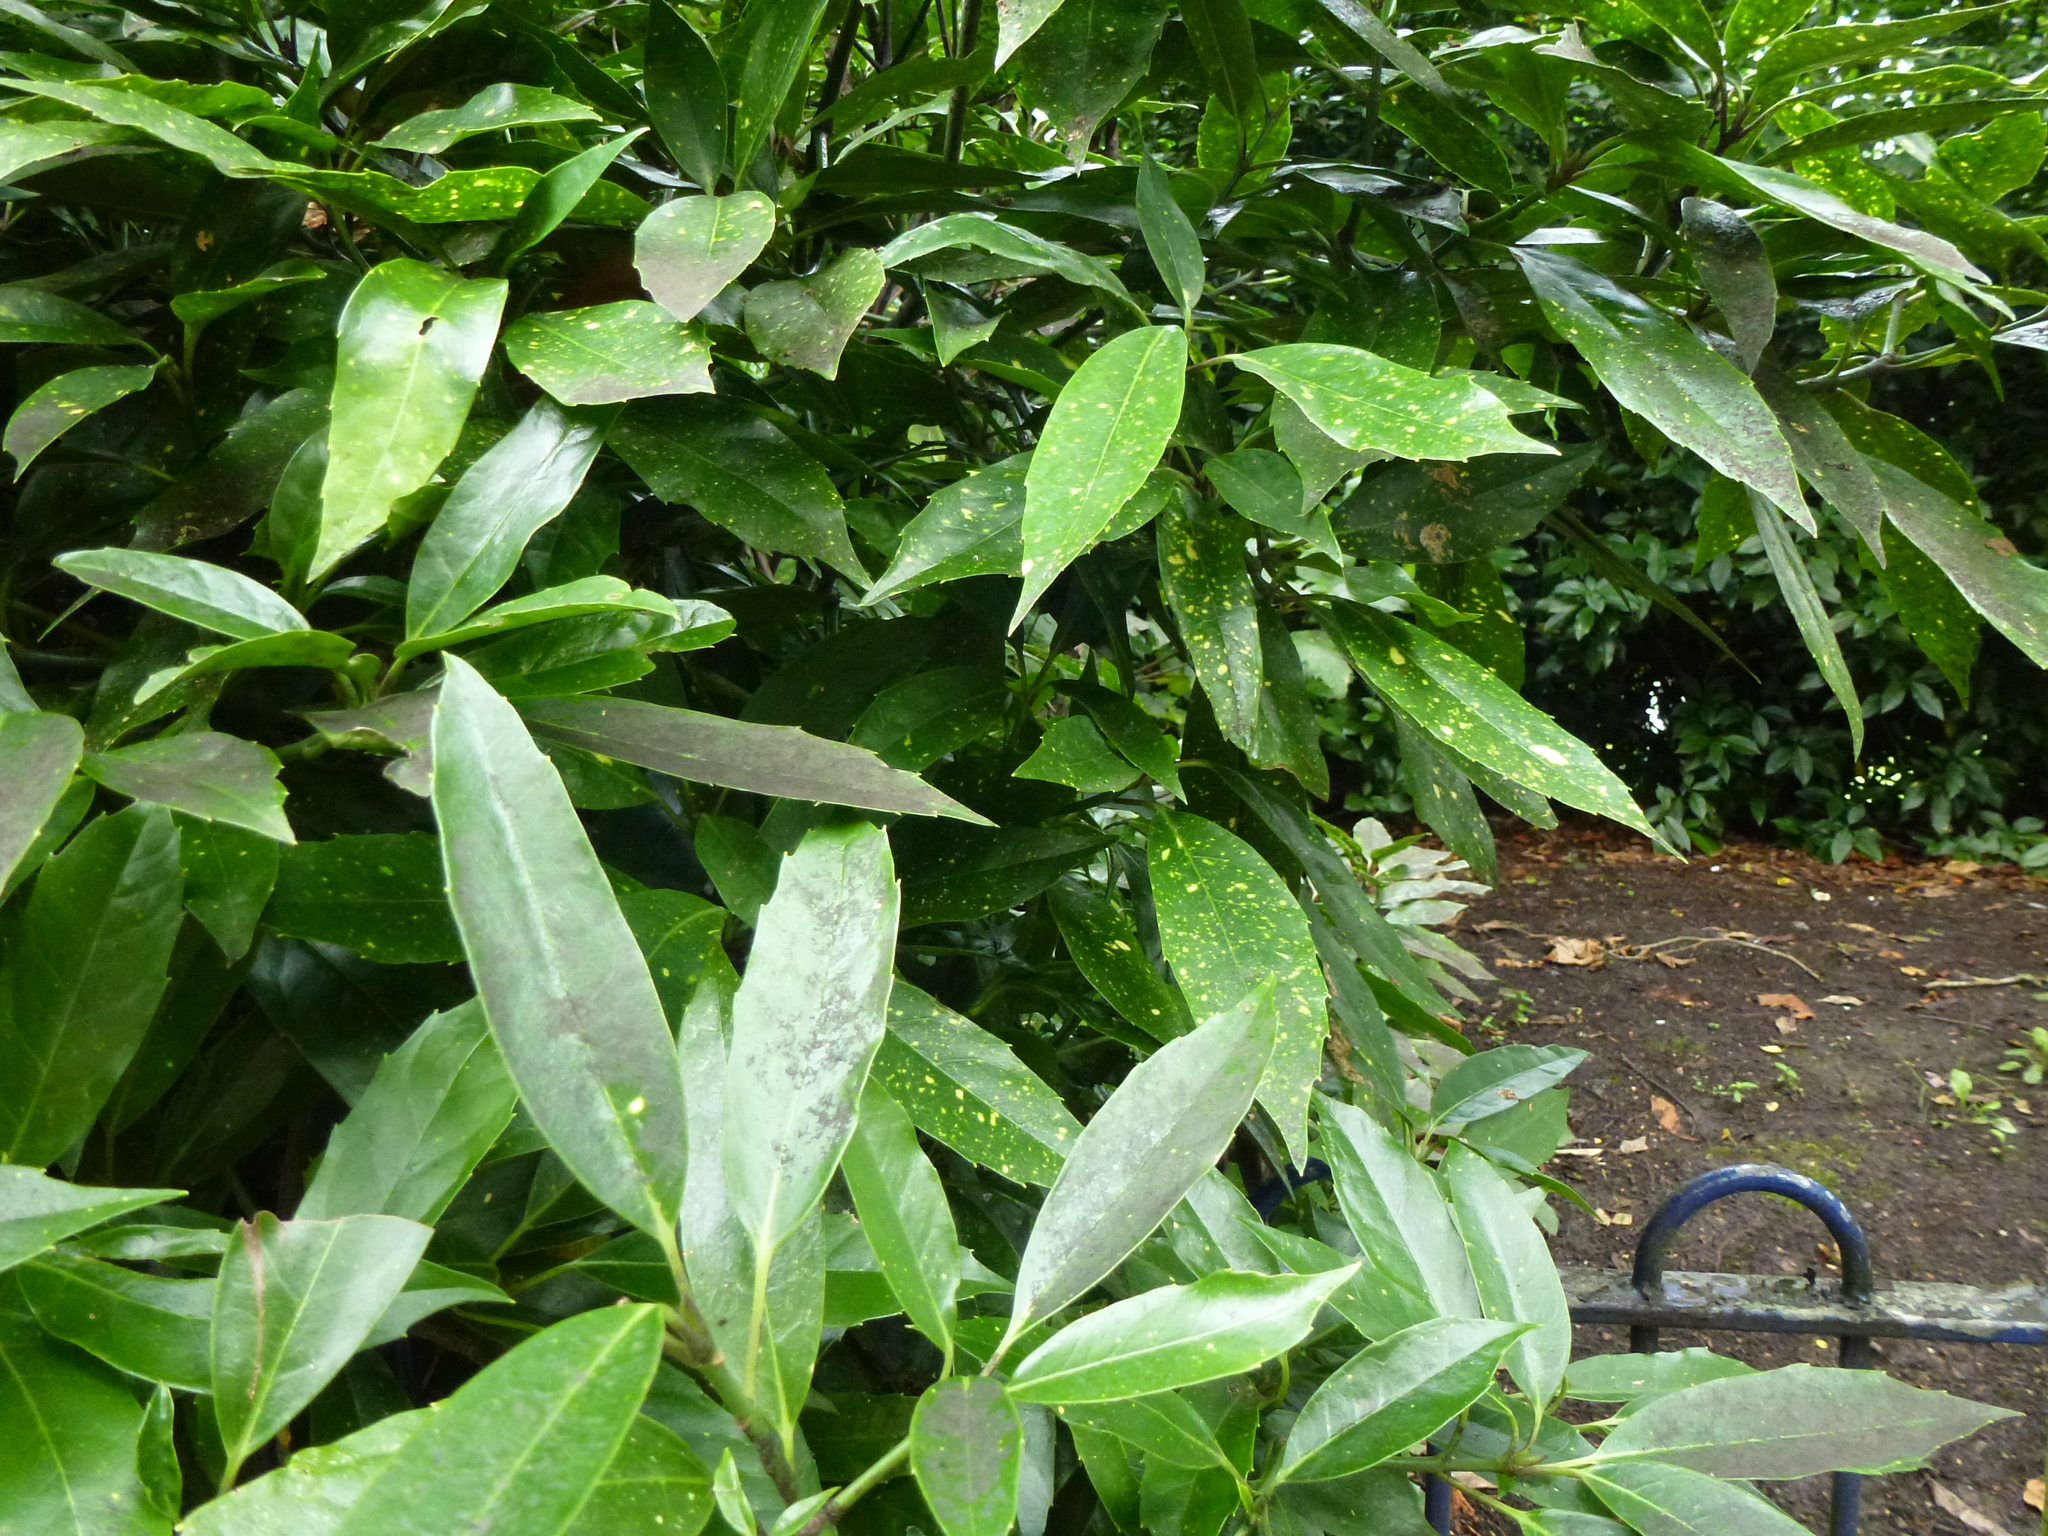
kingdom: Plantae
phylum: Tracheophyta
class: Magnoliopsida
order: Garryales
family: Garryaceae
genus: Aucuba
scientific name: Aucuba japonica
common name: Spotted-laurel
